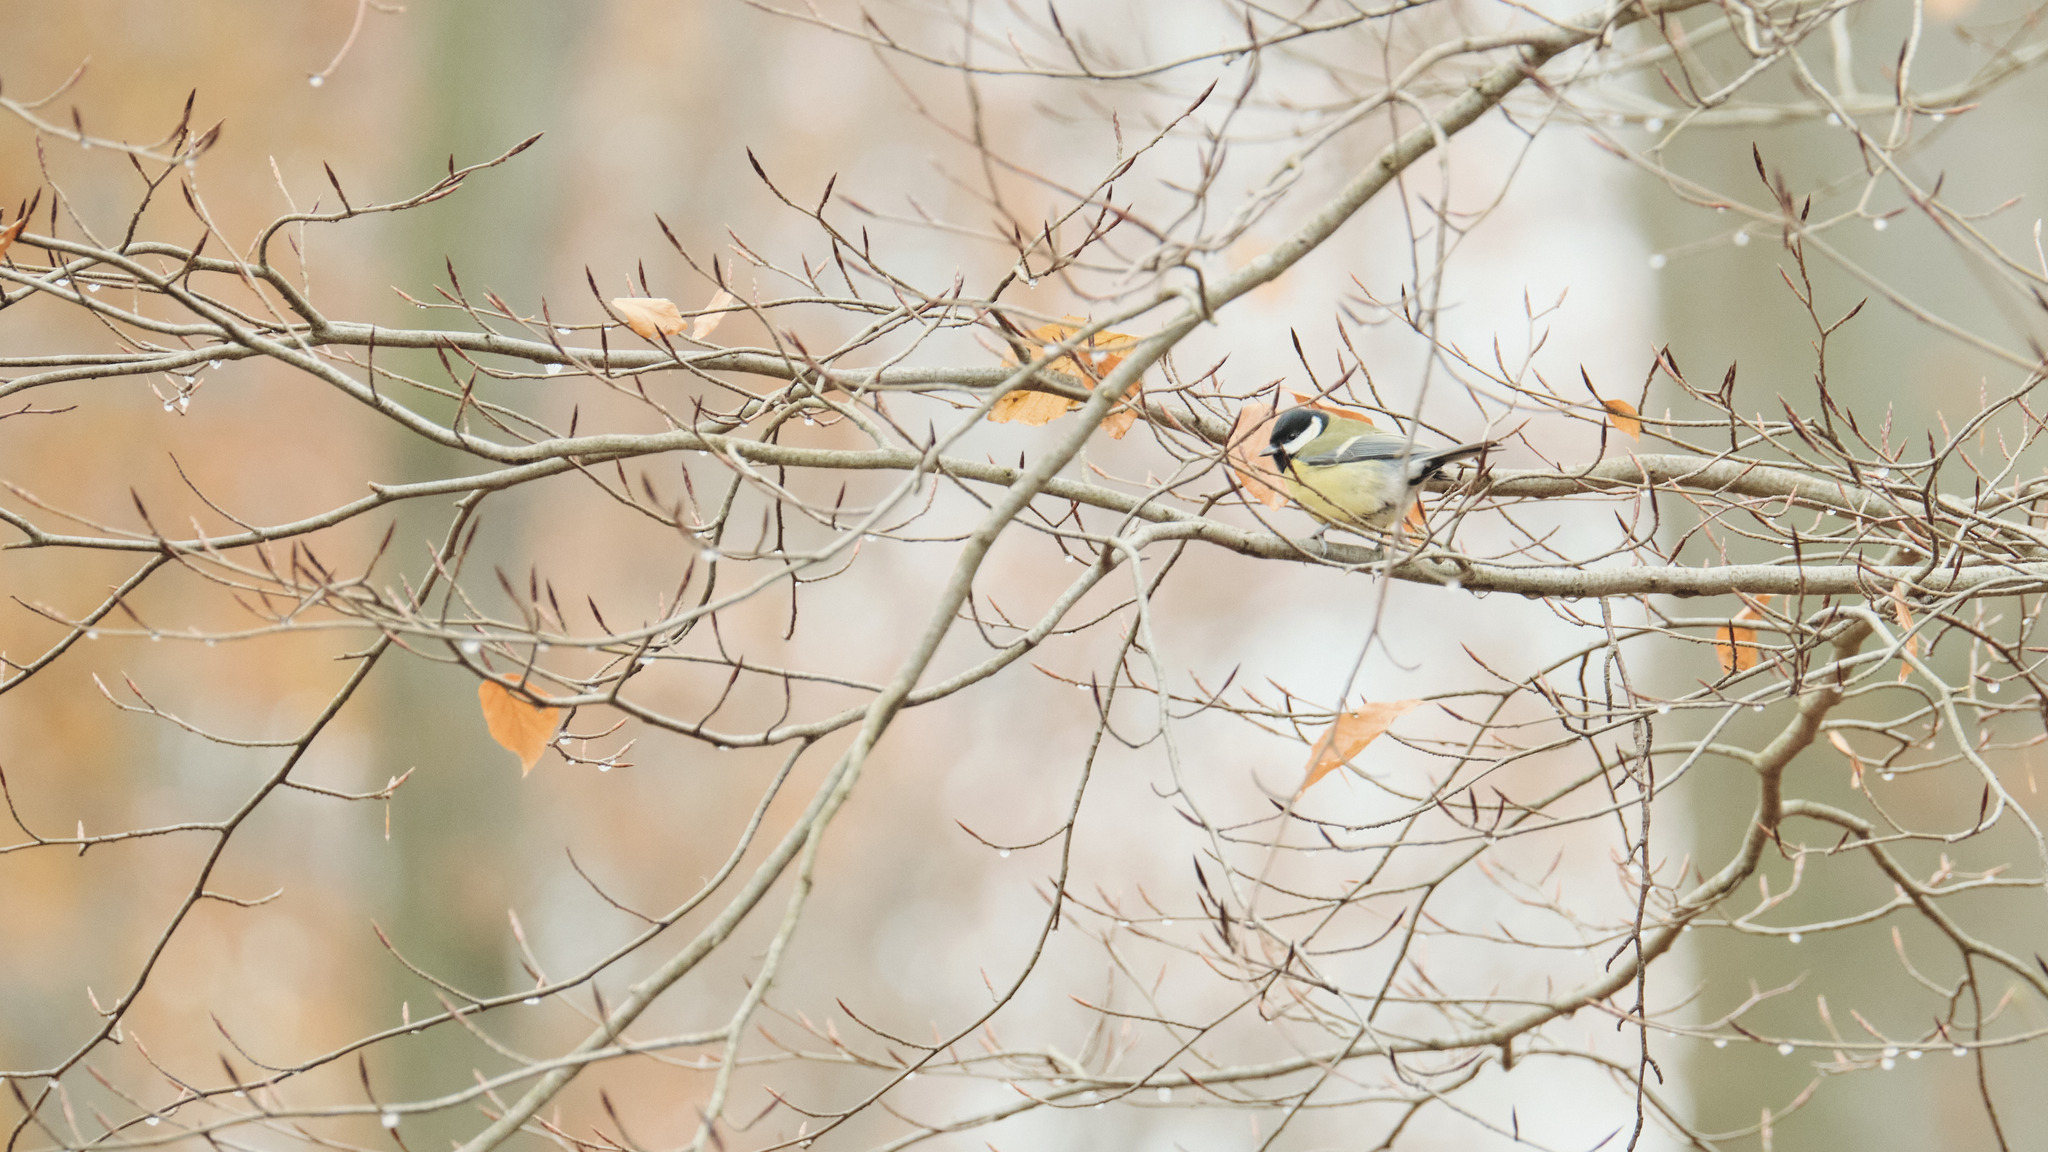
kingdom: Animalia
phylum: Chordata
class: Aves
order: Passeriformes
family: Paridae
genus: Parus
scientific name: Parus major
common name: Great tit
